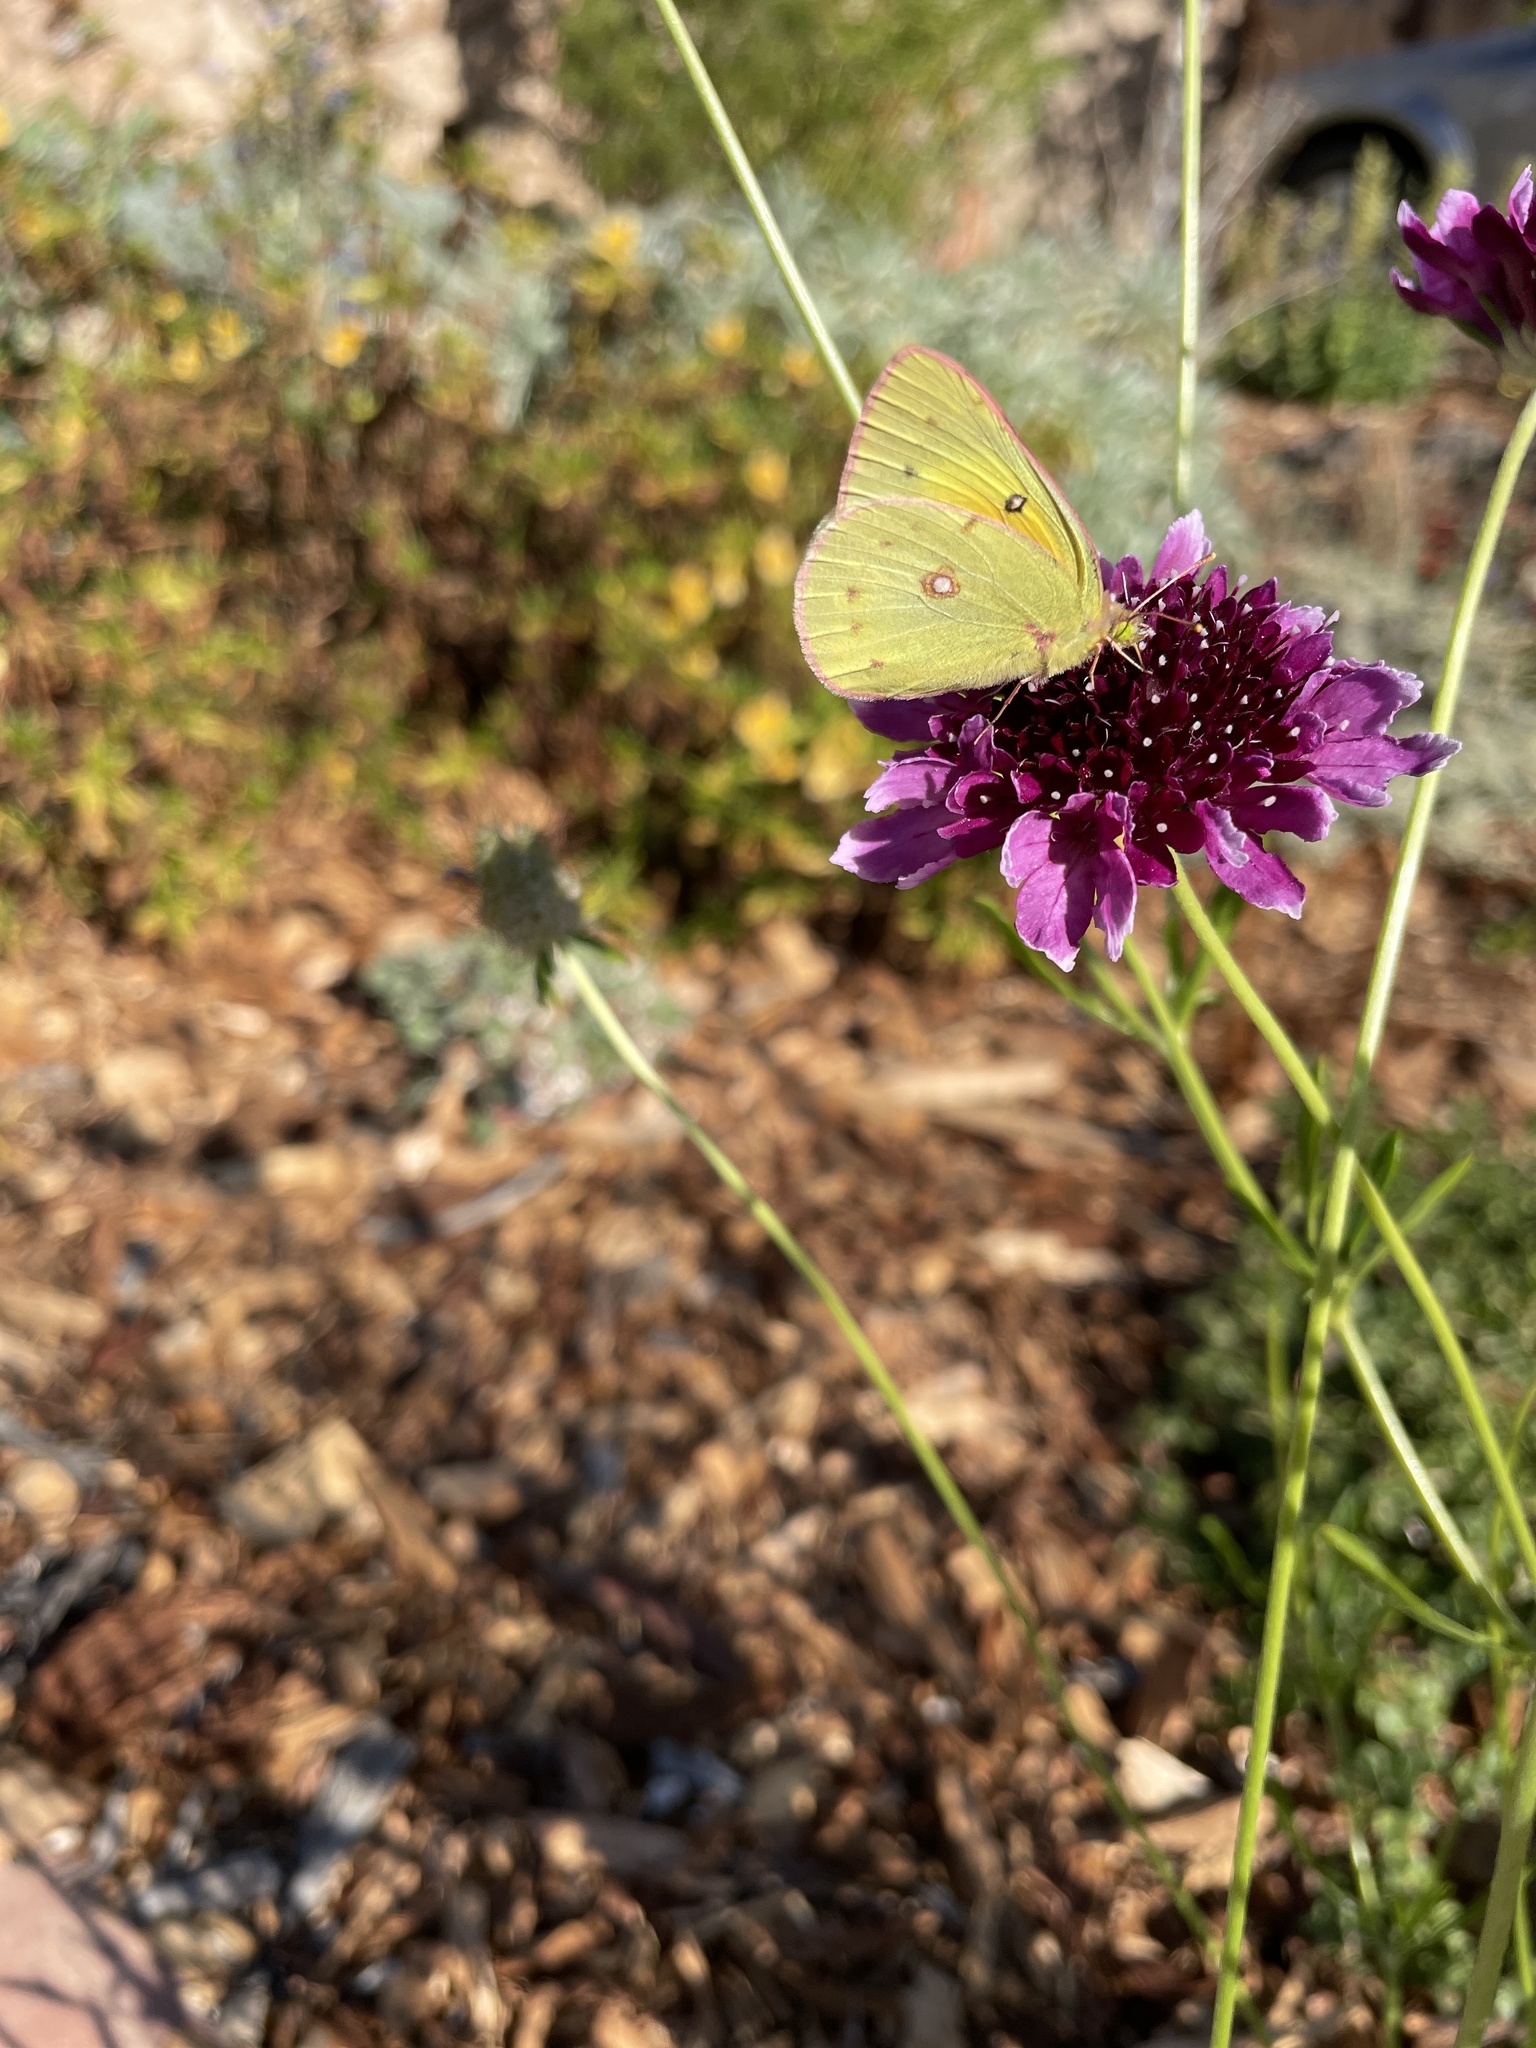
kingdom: Animalia
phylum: Arthropoda
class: Insecta
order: Lepidoptera
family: Pieridae
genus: Colias
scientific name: Colias eurytheme
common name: Alfalfa butterfly
